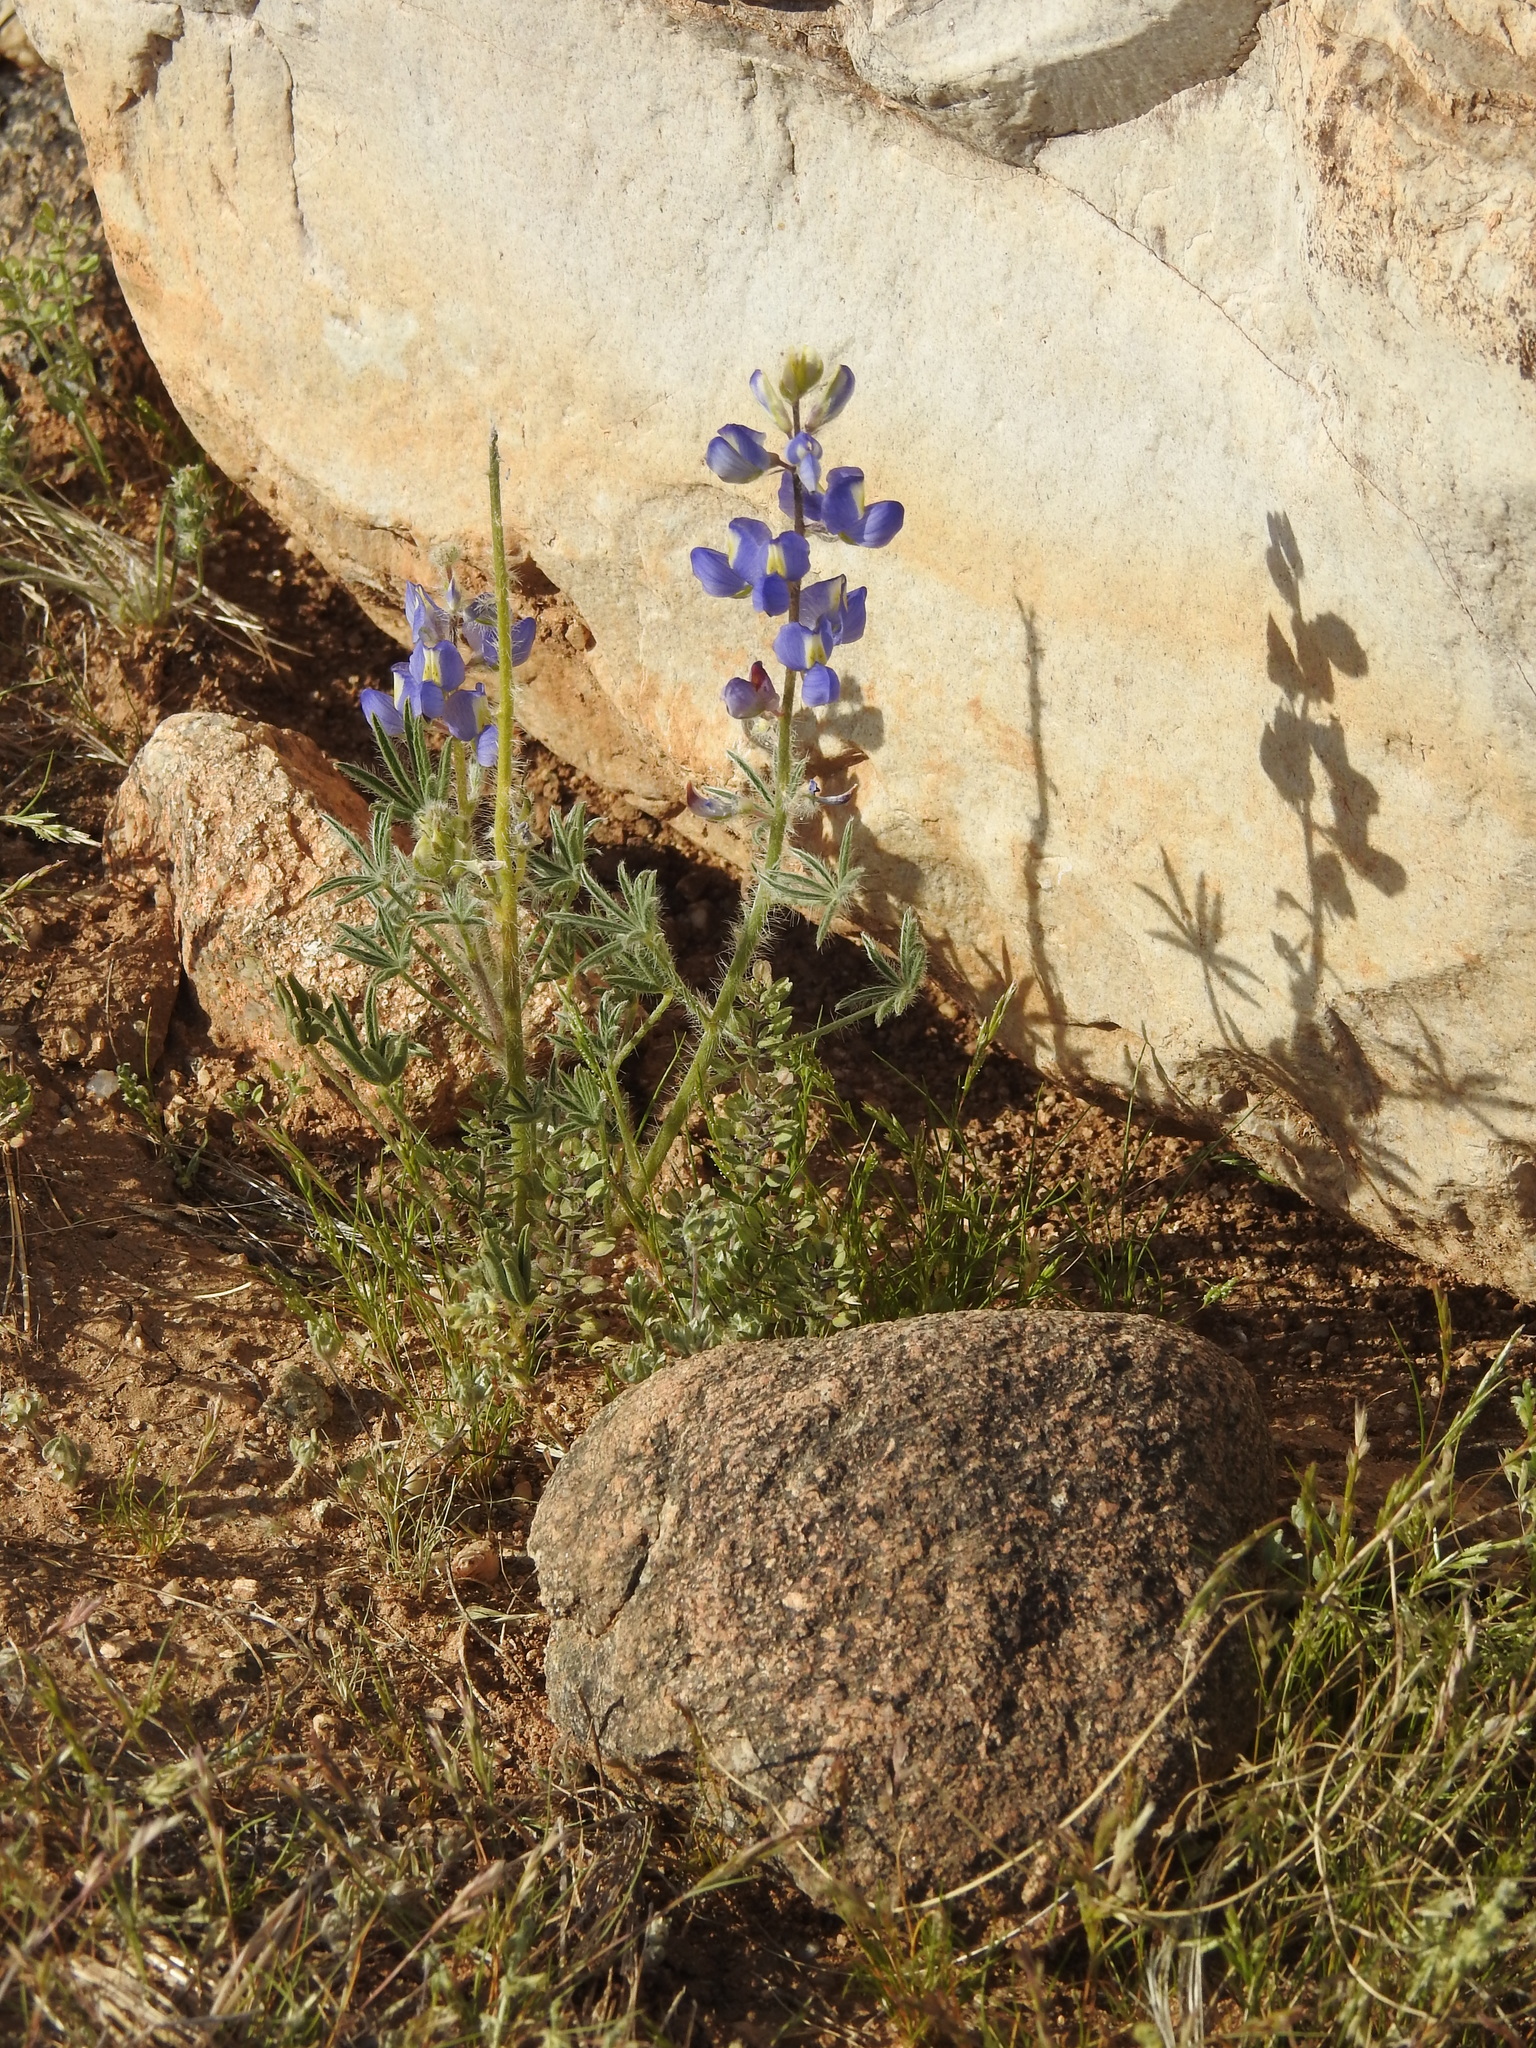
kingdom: Plantae
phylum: Tracheophyta
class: Magnoliopsida
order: Fabales
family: Fabaceae
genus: Lupinus
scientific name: Lupinus sparsiflorus
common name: Coulter's lupine
